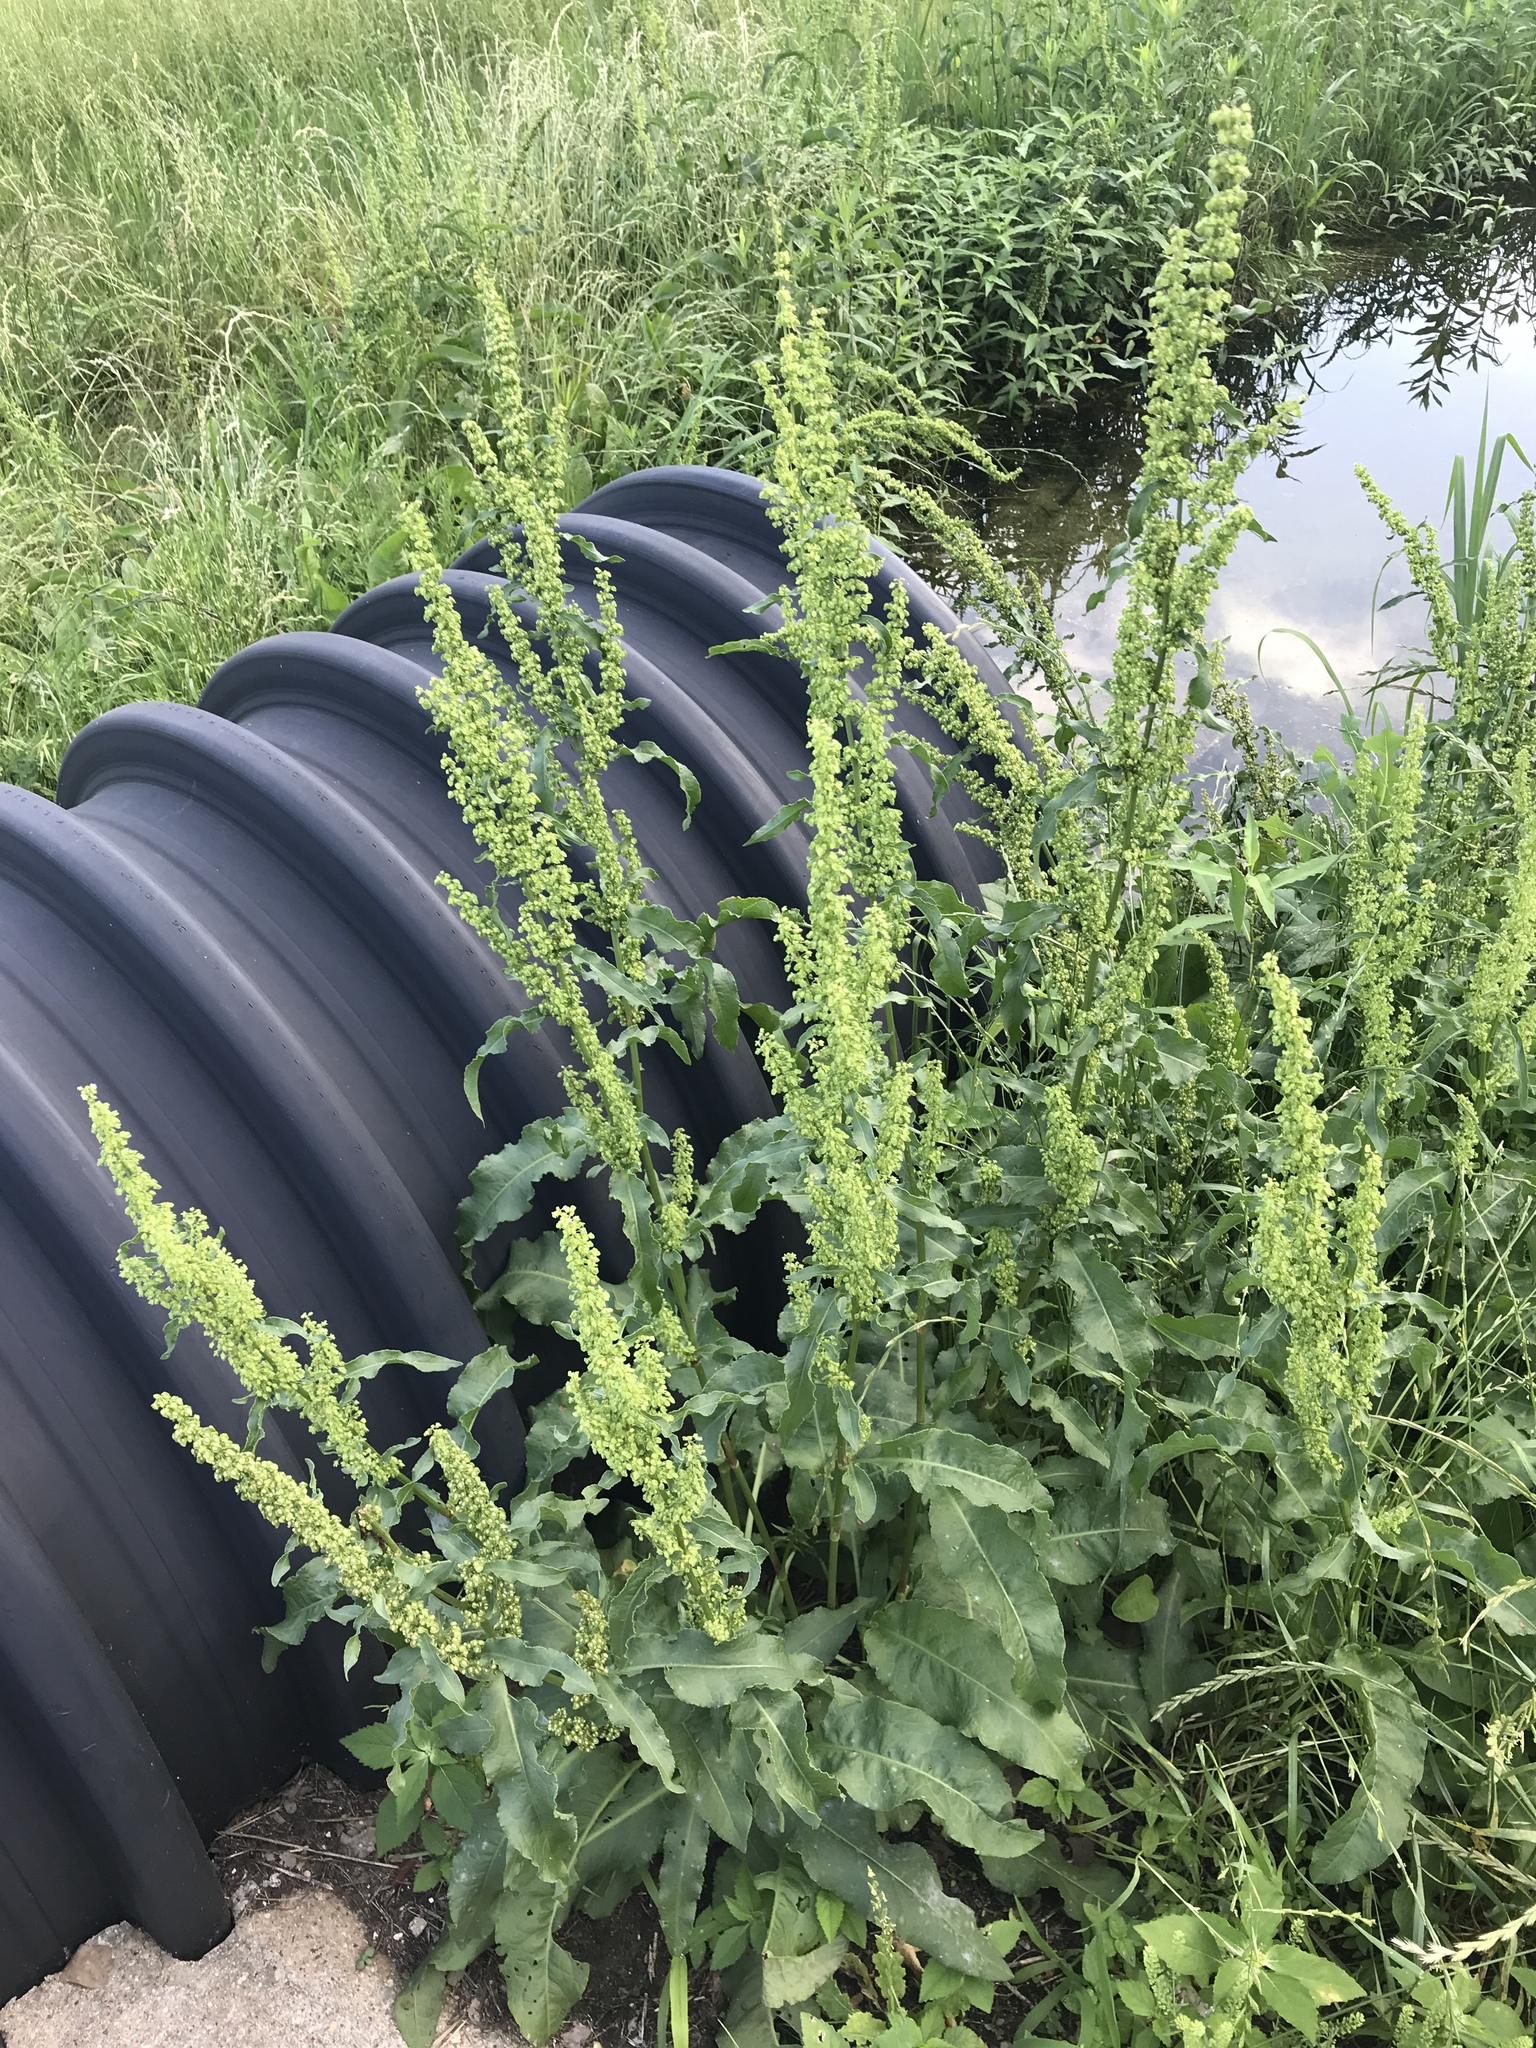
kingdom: Plantae
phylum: Tracheophyta
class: Magnoliopsida
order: Caryophyllales
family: Polygonaceae
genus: Rumex
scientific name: Rumex crispus
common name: Curled dock
